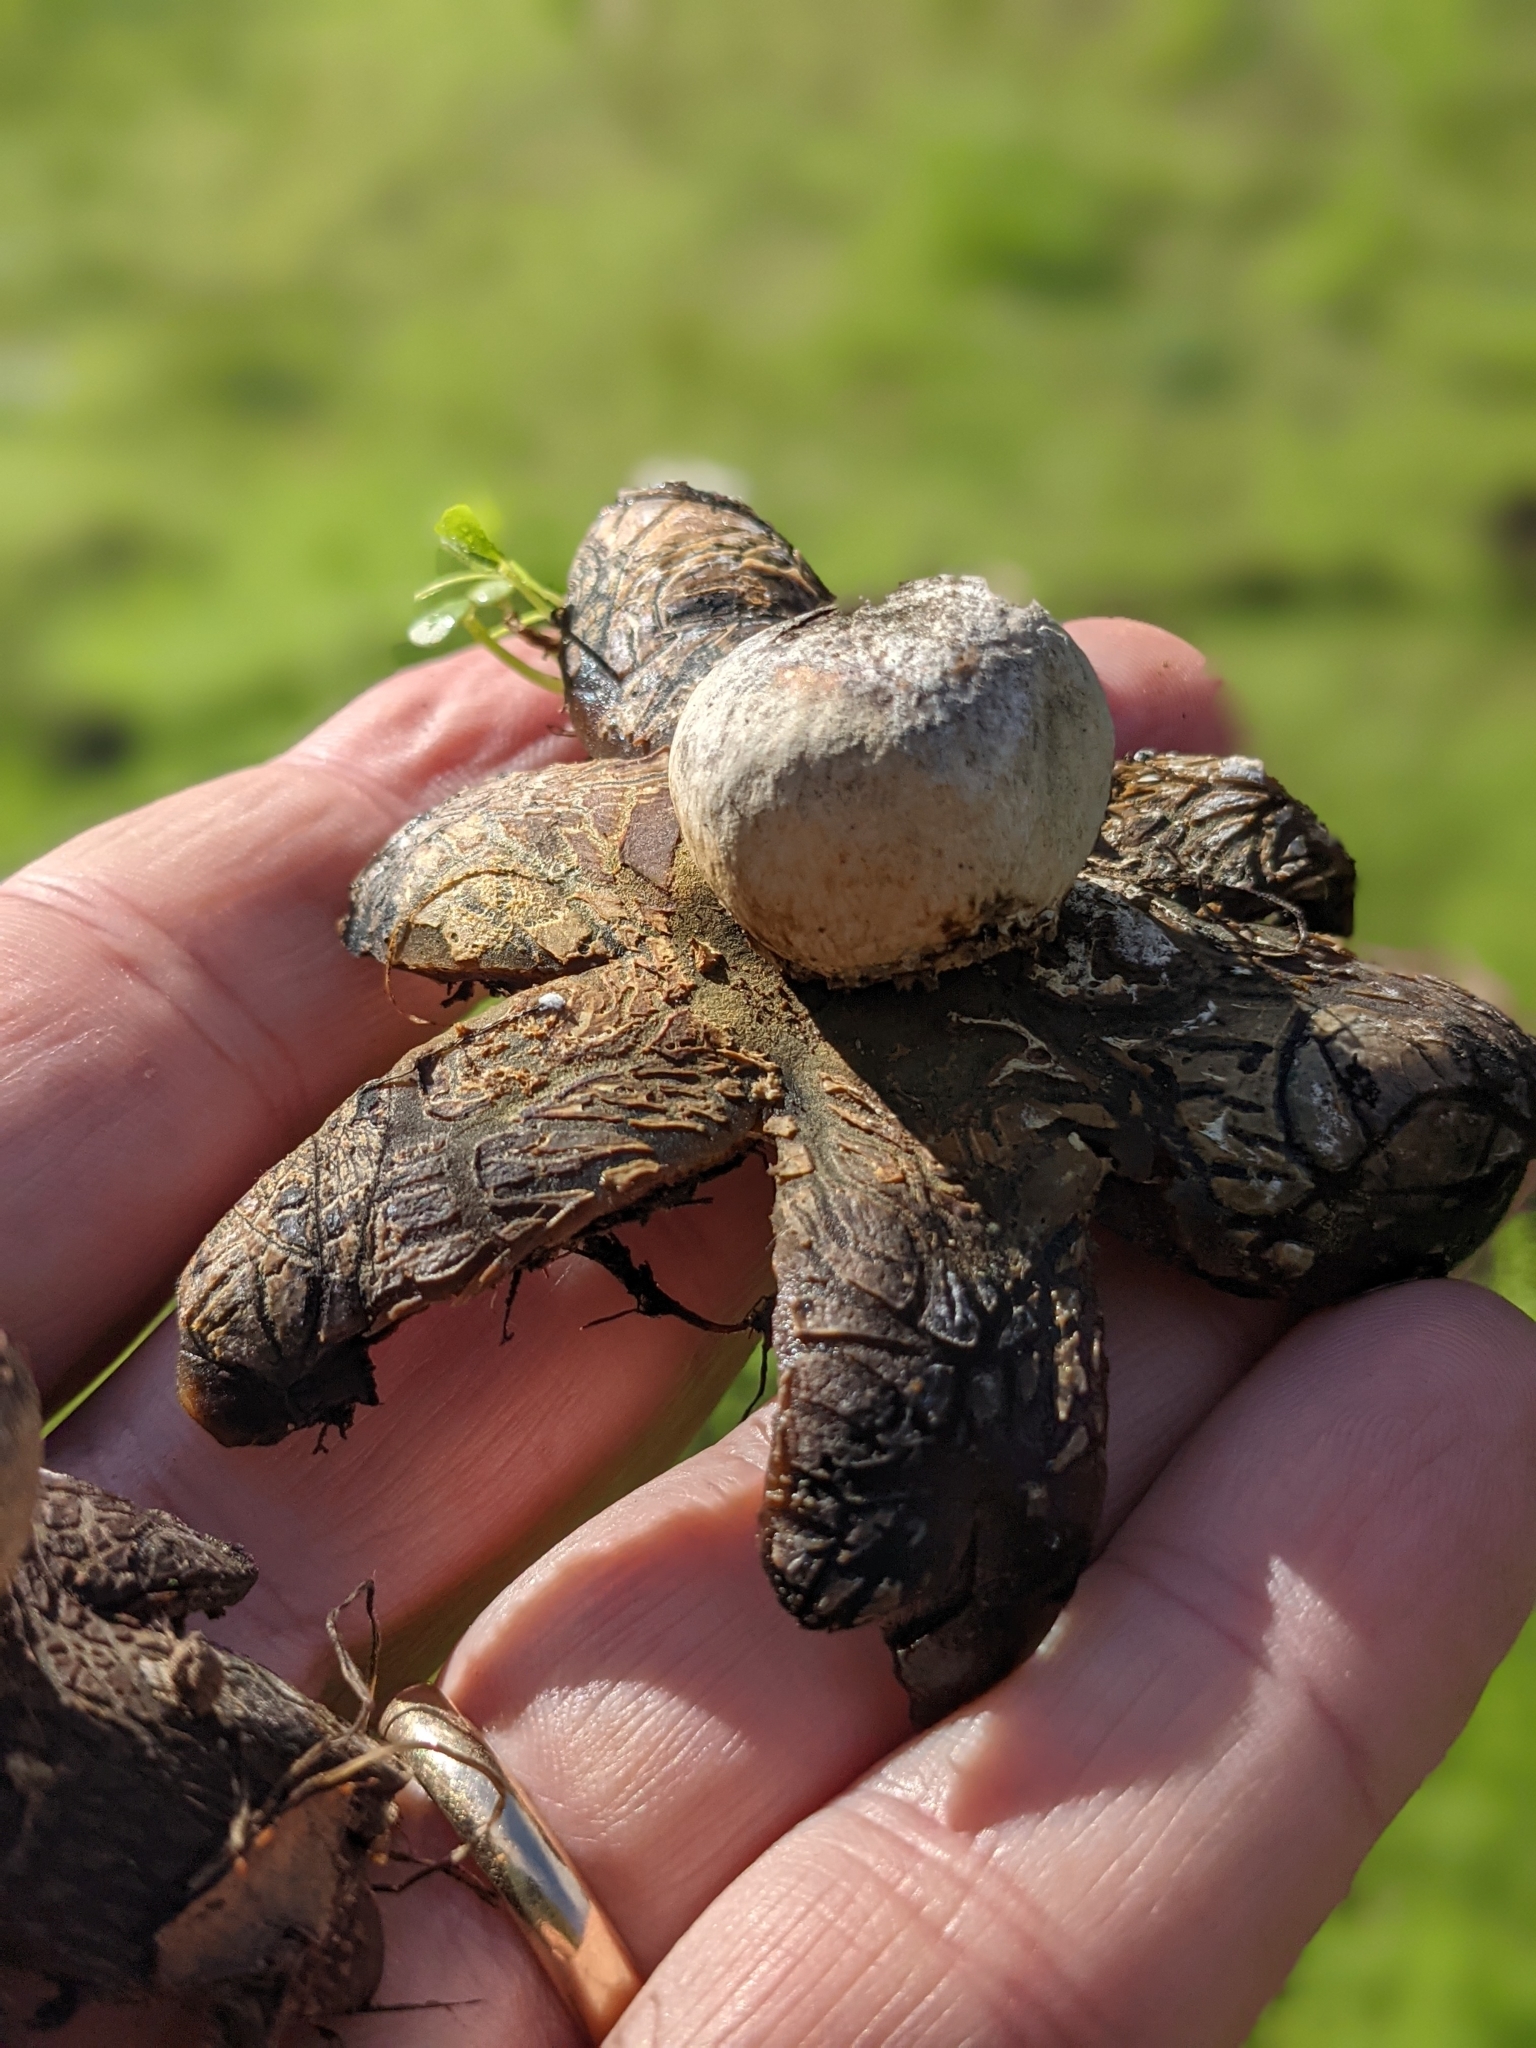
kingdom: Fungi
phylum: Basidiomycota
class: Agaricomycetes
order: Boletales
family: Diplocystidiaceae
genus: Astraeus
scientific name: Astraeus pteridis
